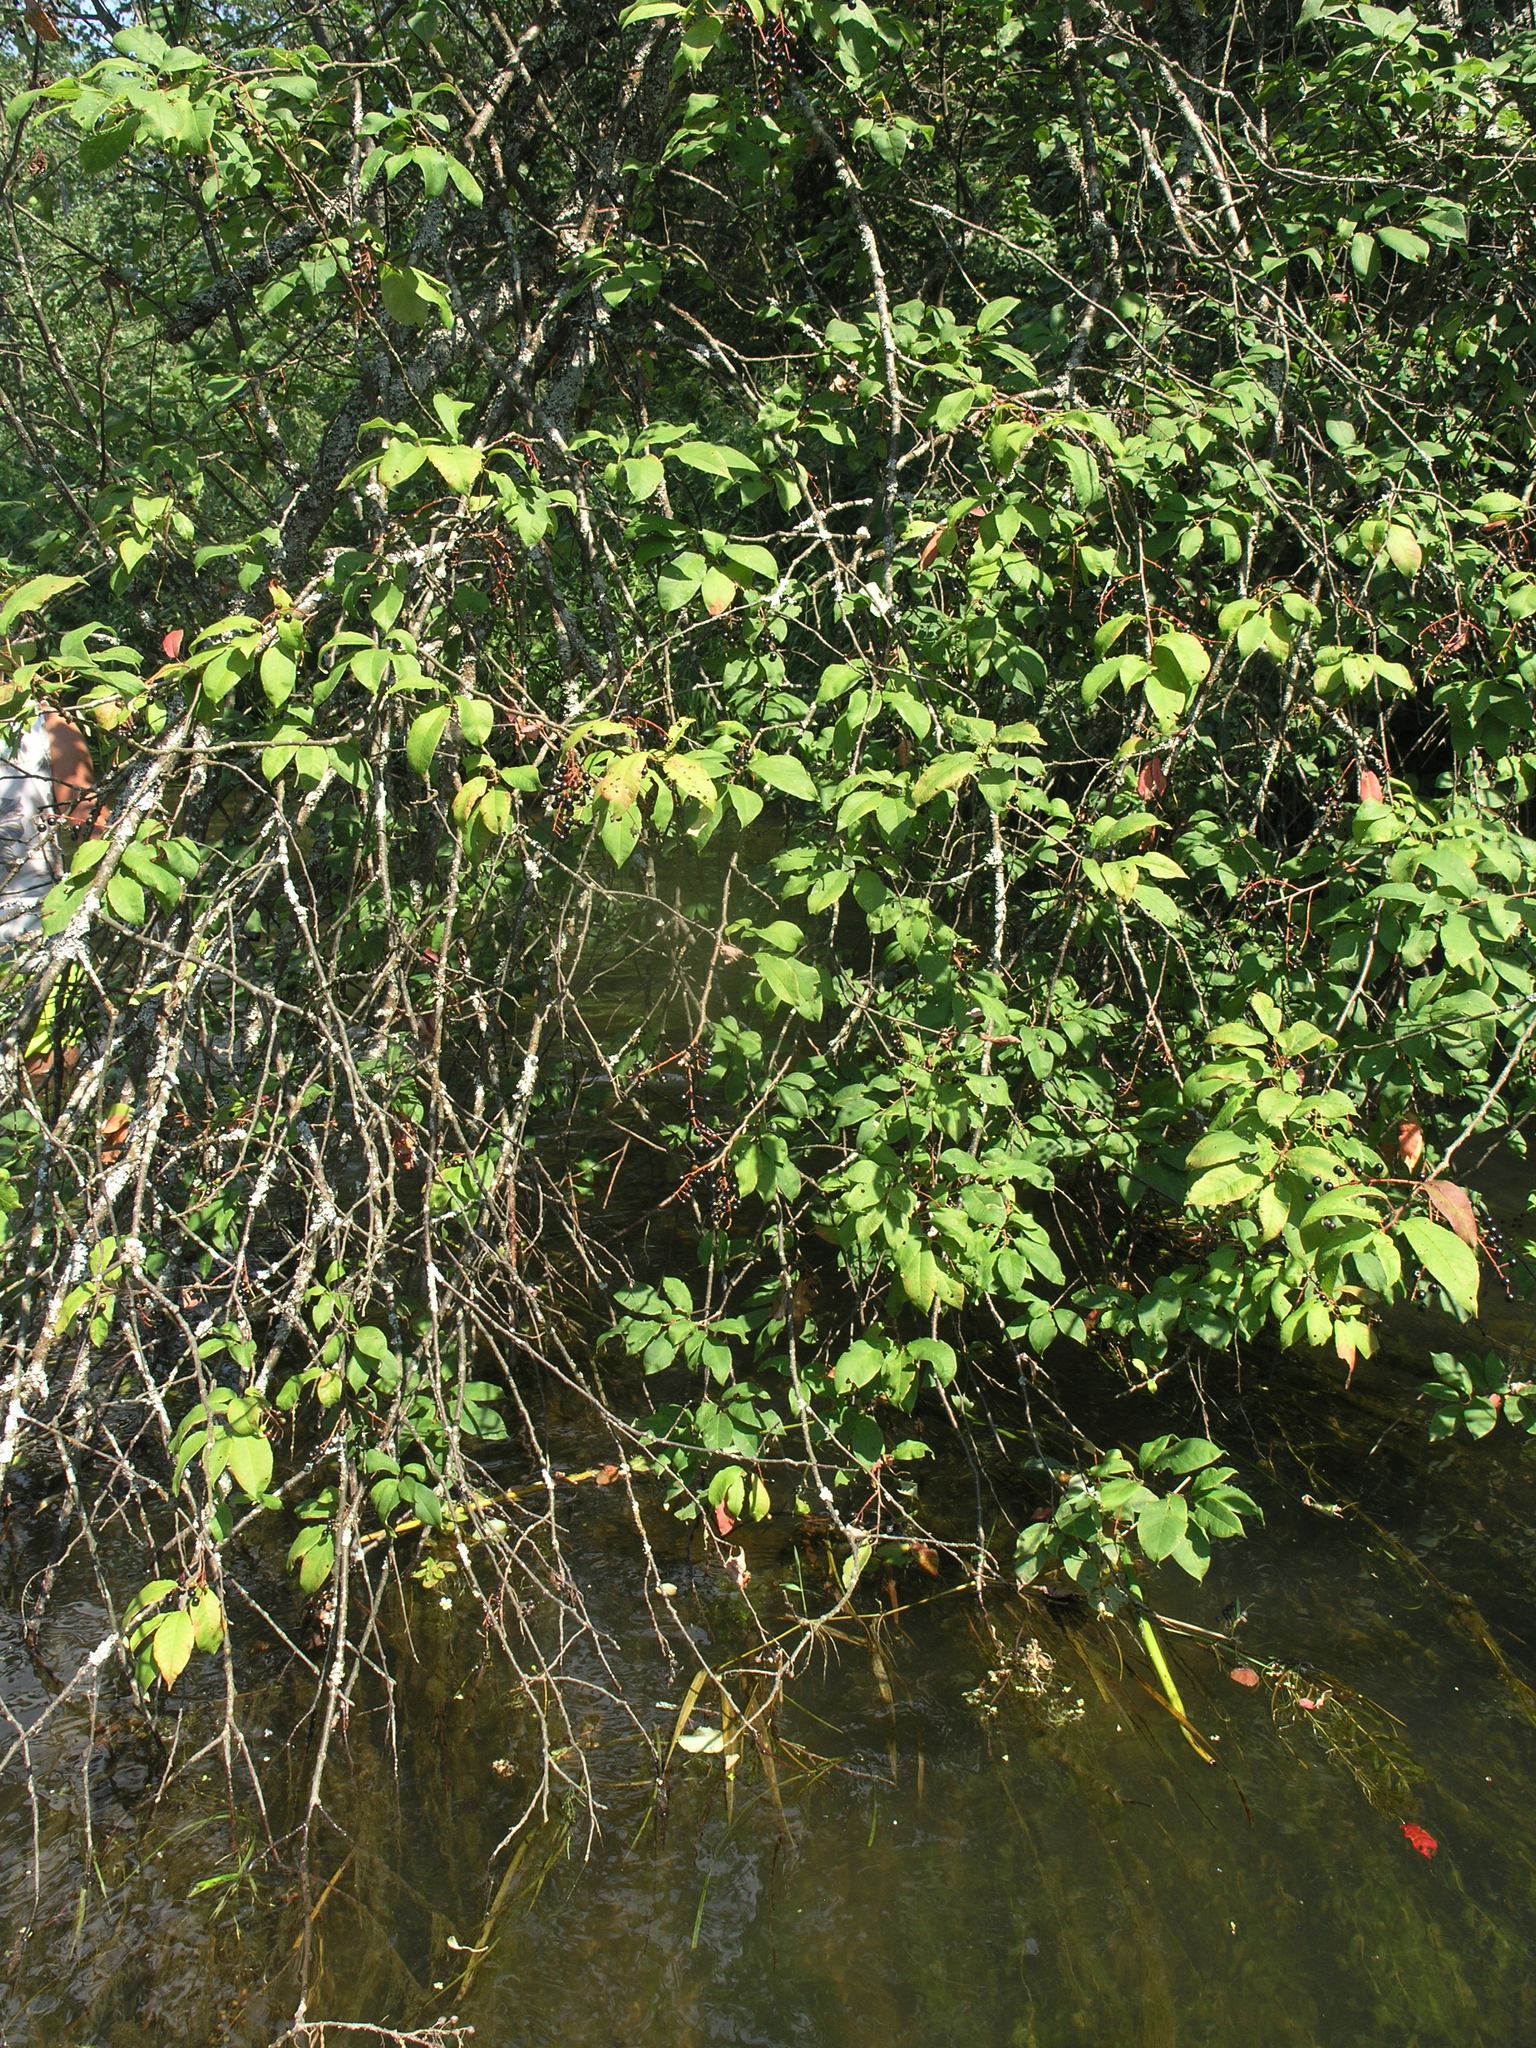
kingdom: Plantae
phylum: Tracheophyta
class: Magnoliopsida
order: Rosales
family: Rosaceae
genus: Prunus
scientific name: Prunus padus
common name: Bird cherry
